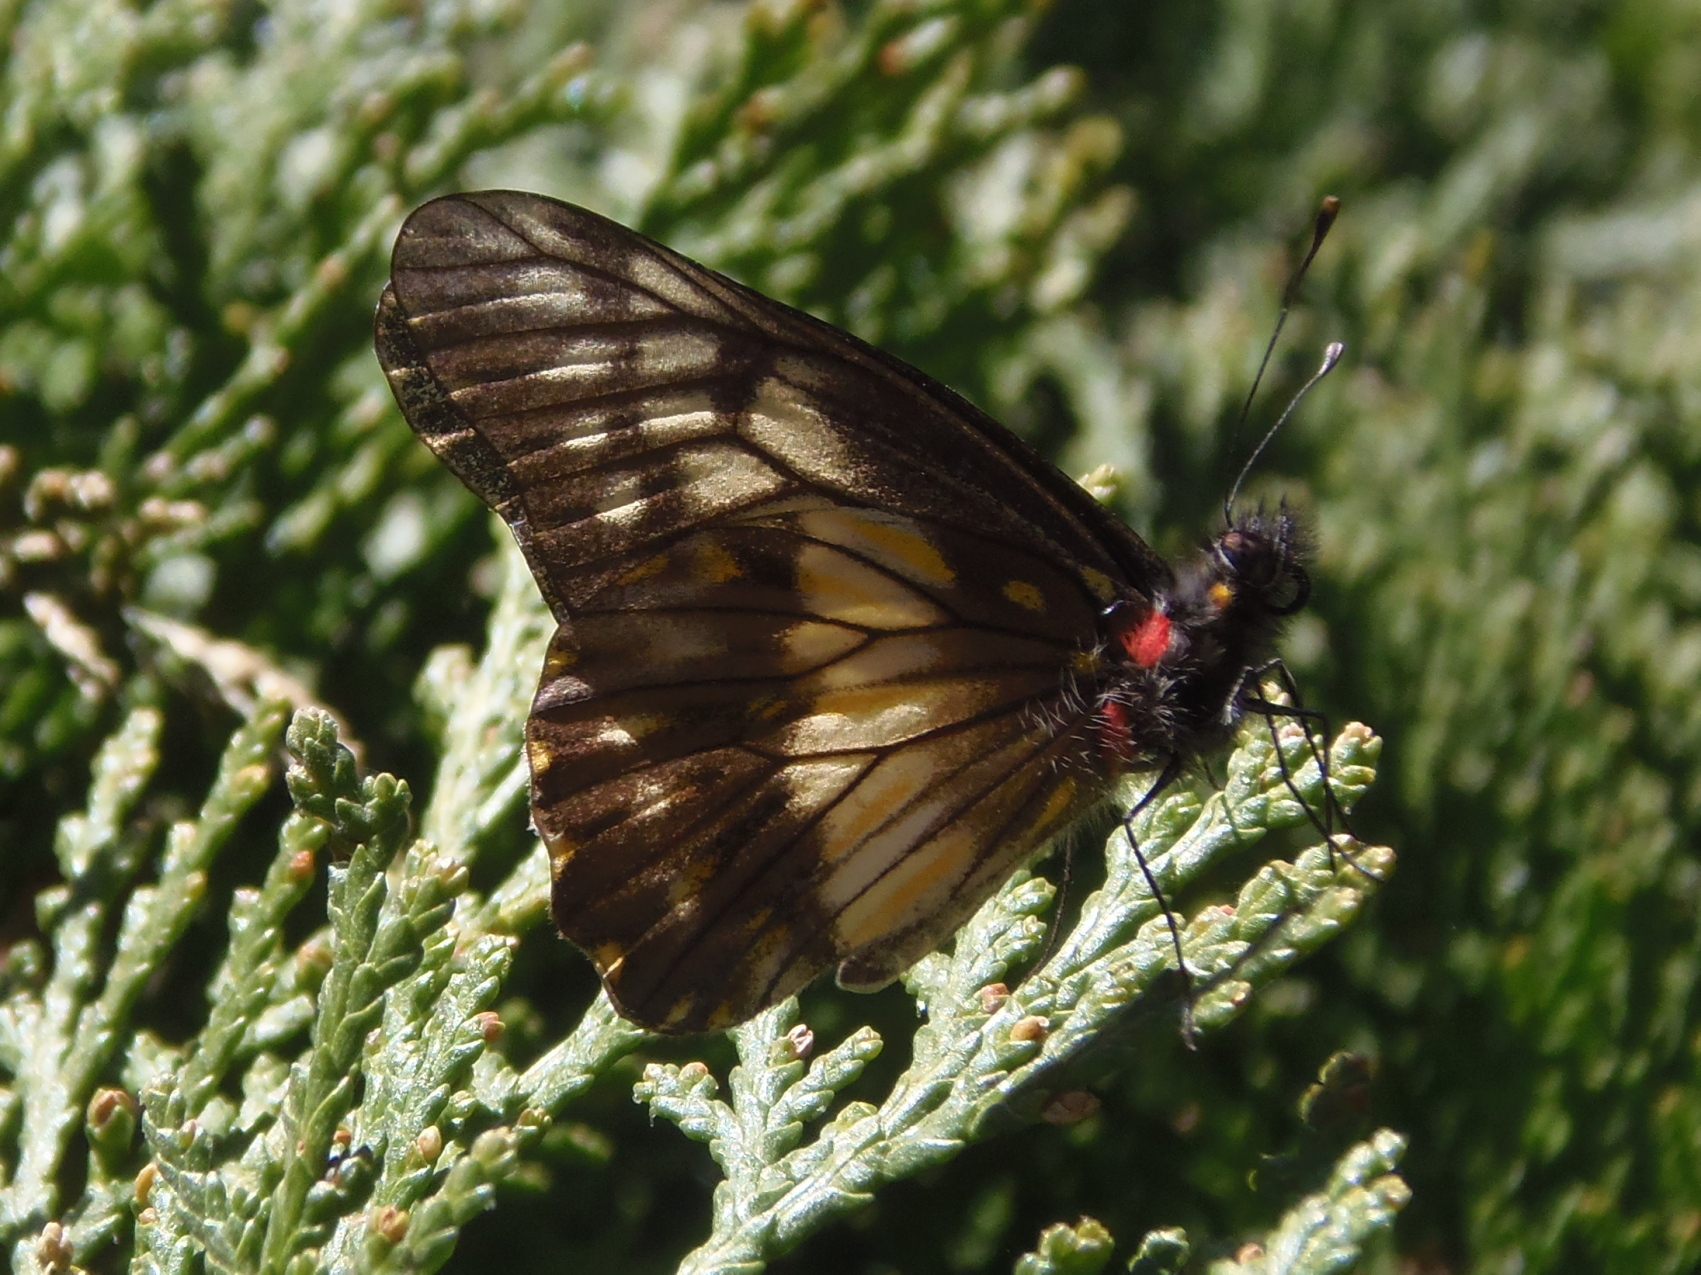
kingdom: Animalia
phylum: Arthropoda
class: Insecta
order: Lepidoptera
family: Pieridae
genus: Archonias
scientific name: Archonias nimbice
